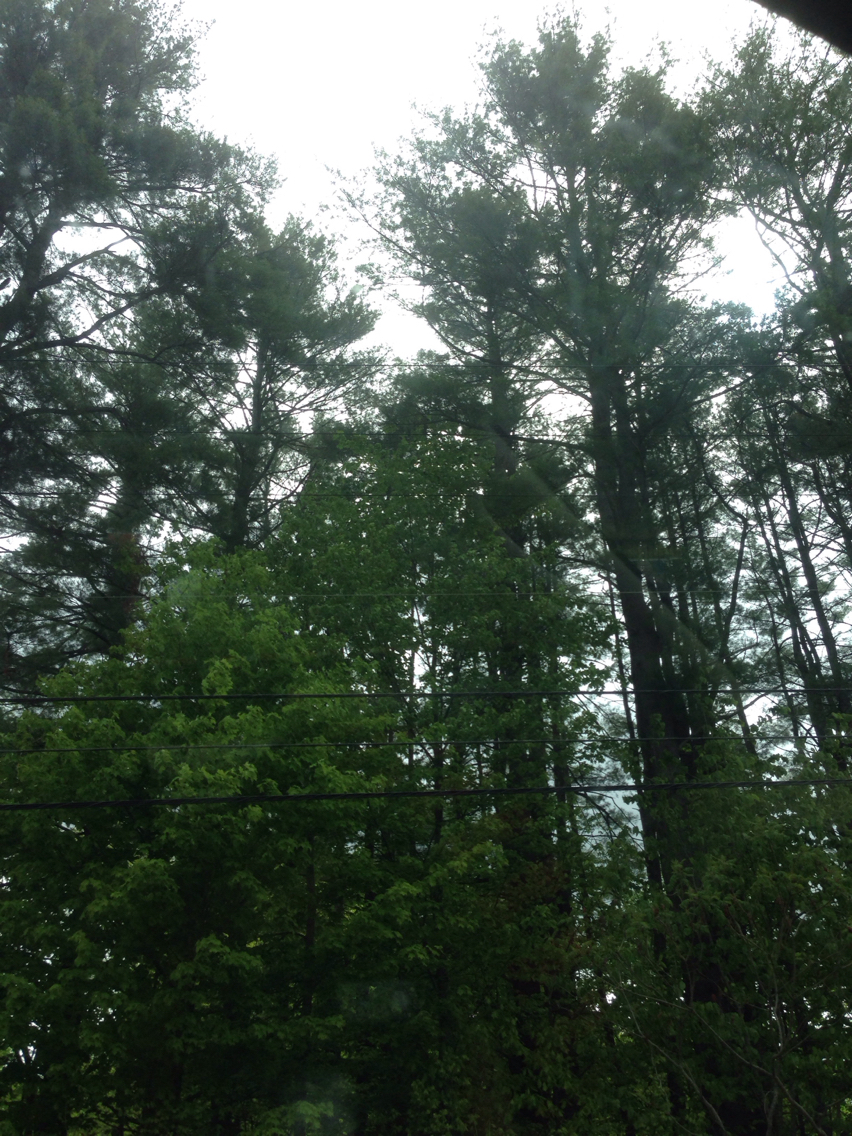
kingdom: Plantae
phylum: Tracheophyta
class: Pinopsida
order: Pinales
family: Pinaceae
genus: Pinus
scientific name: Pinus strobus
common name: Weymouth pine
